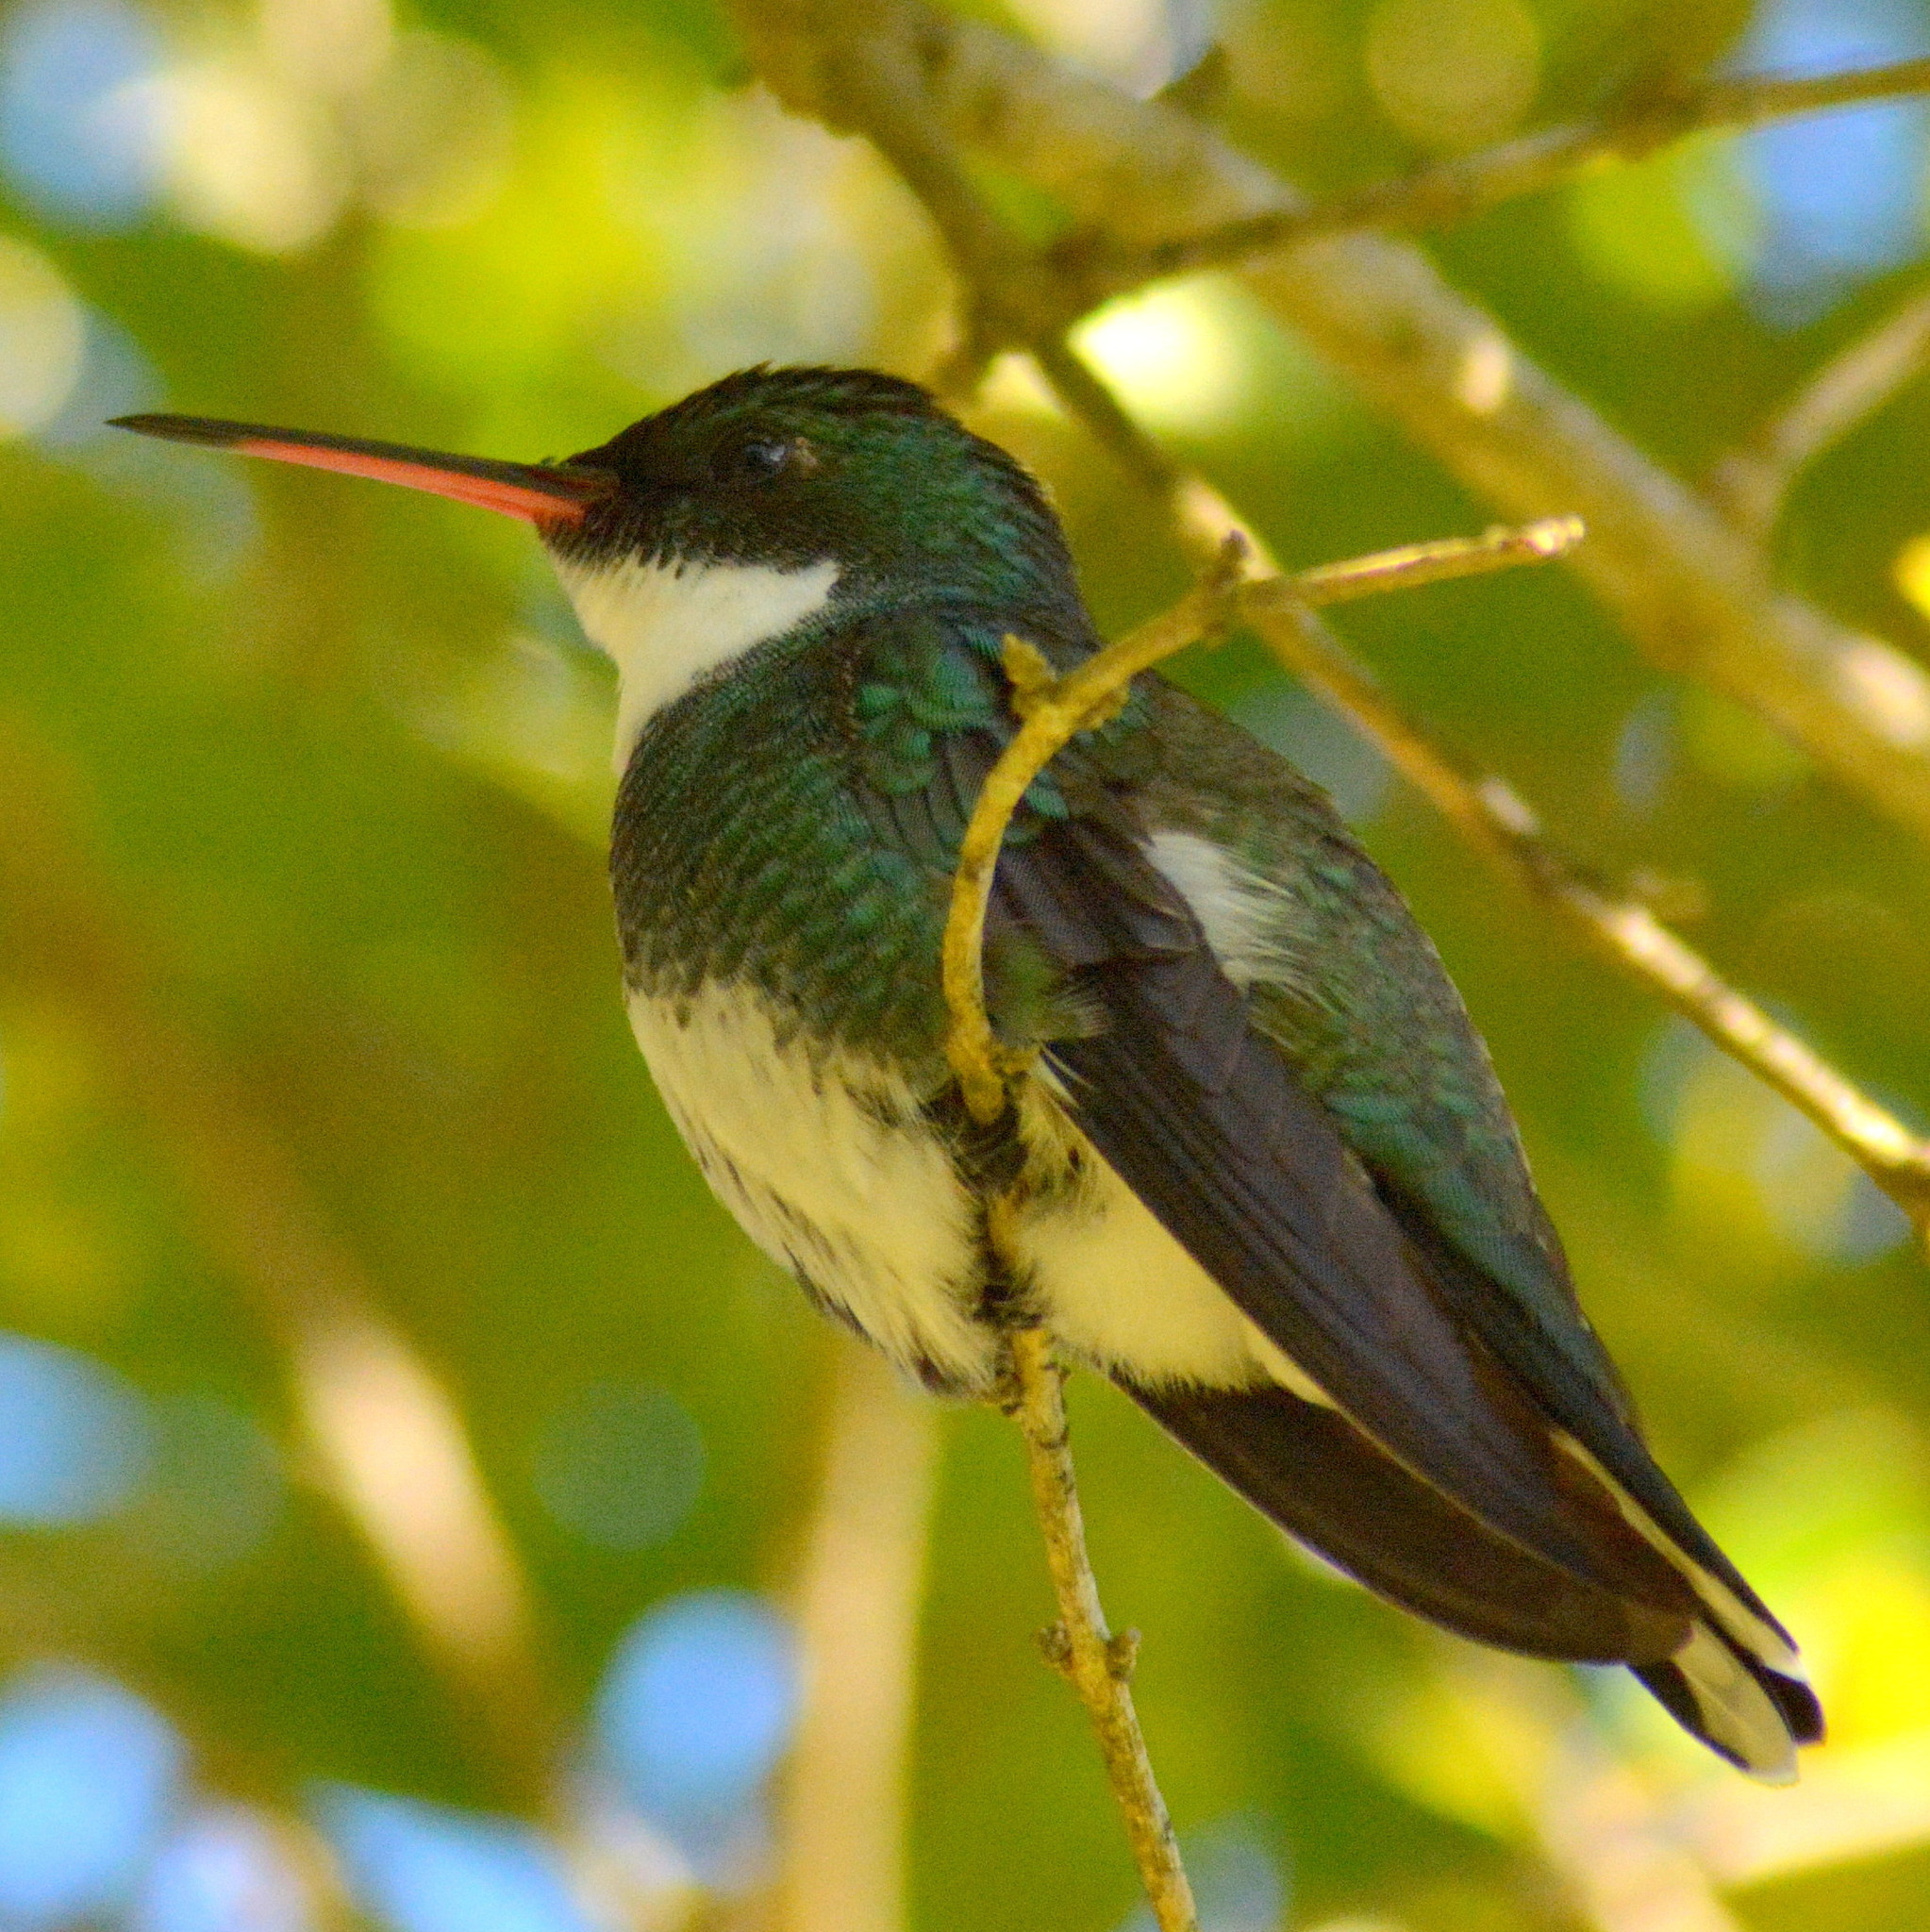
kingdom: Animalia
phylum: Chordata
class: Aves
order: Apodiformes
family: Trochilidae
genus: Leucochloris
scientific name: Leucochloris albicollis
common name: White-throated hummingbird
